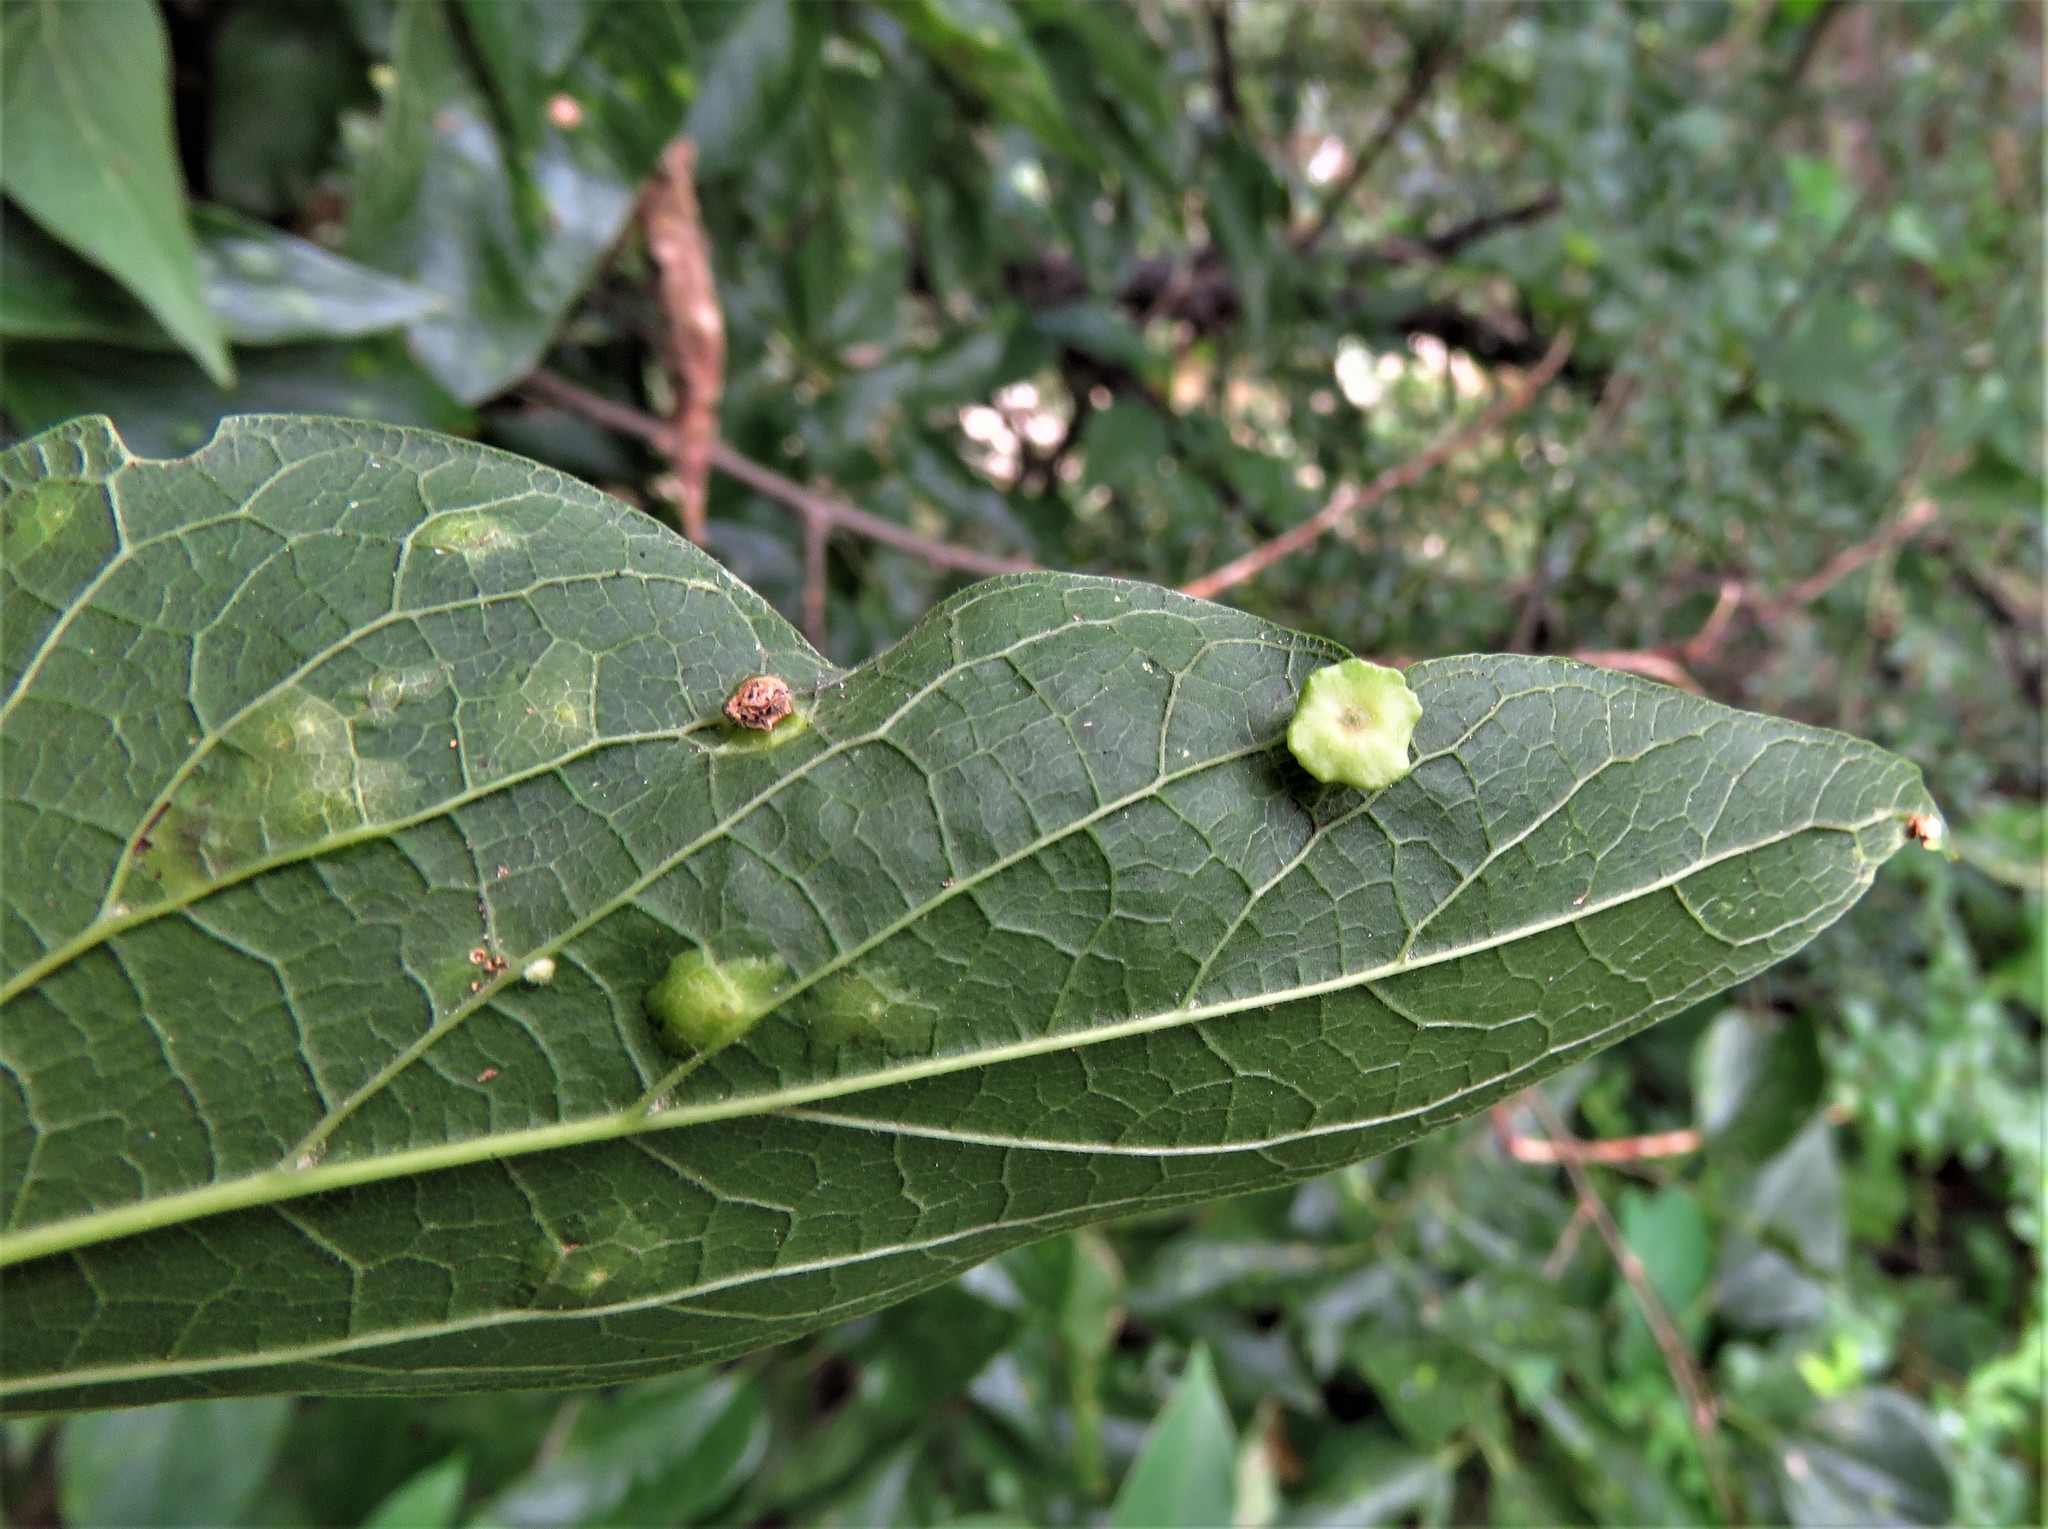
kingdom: Animalia
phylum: Arthropoda
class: Insecta
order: Hemiptera
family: Aphalaridae
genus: Pachypsylla
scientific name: Pachypsylla celtidismamma
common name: Hackberry nipplegall psyllid
